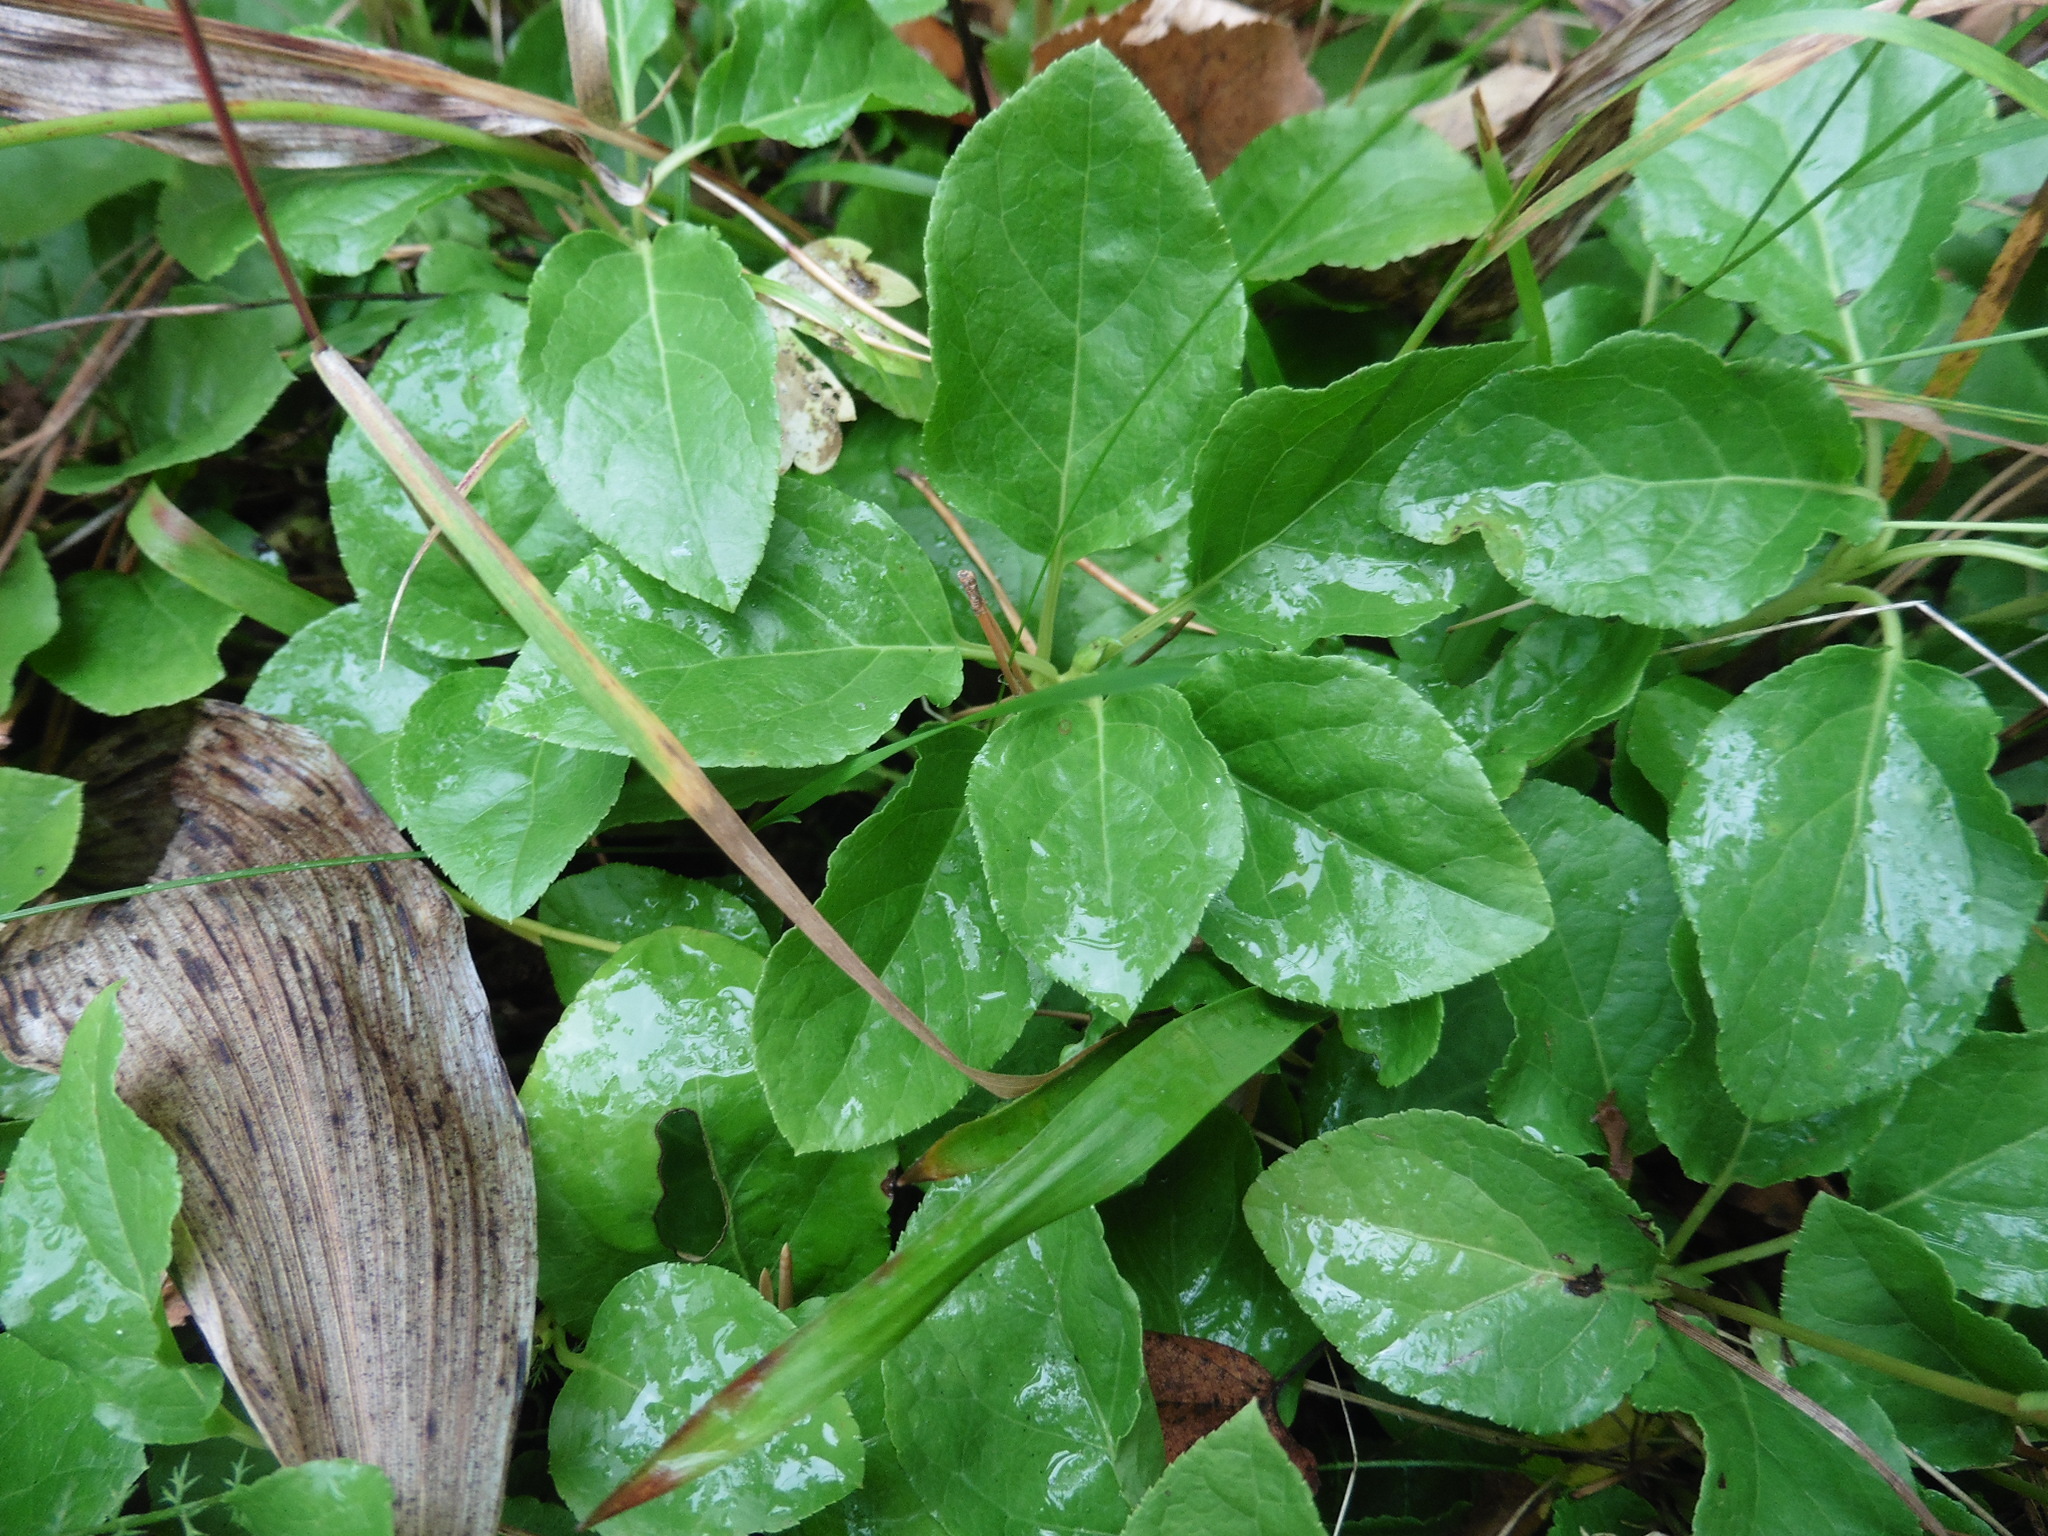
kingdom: Plantae
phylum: Tracheophyta
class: Magnoliopsida
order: Ericales
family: Ericaceae
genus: Orthilia
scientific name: Orthilia secunda
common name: One-sided orthilia
